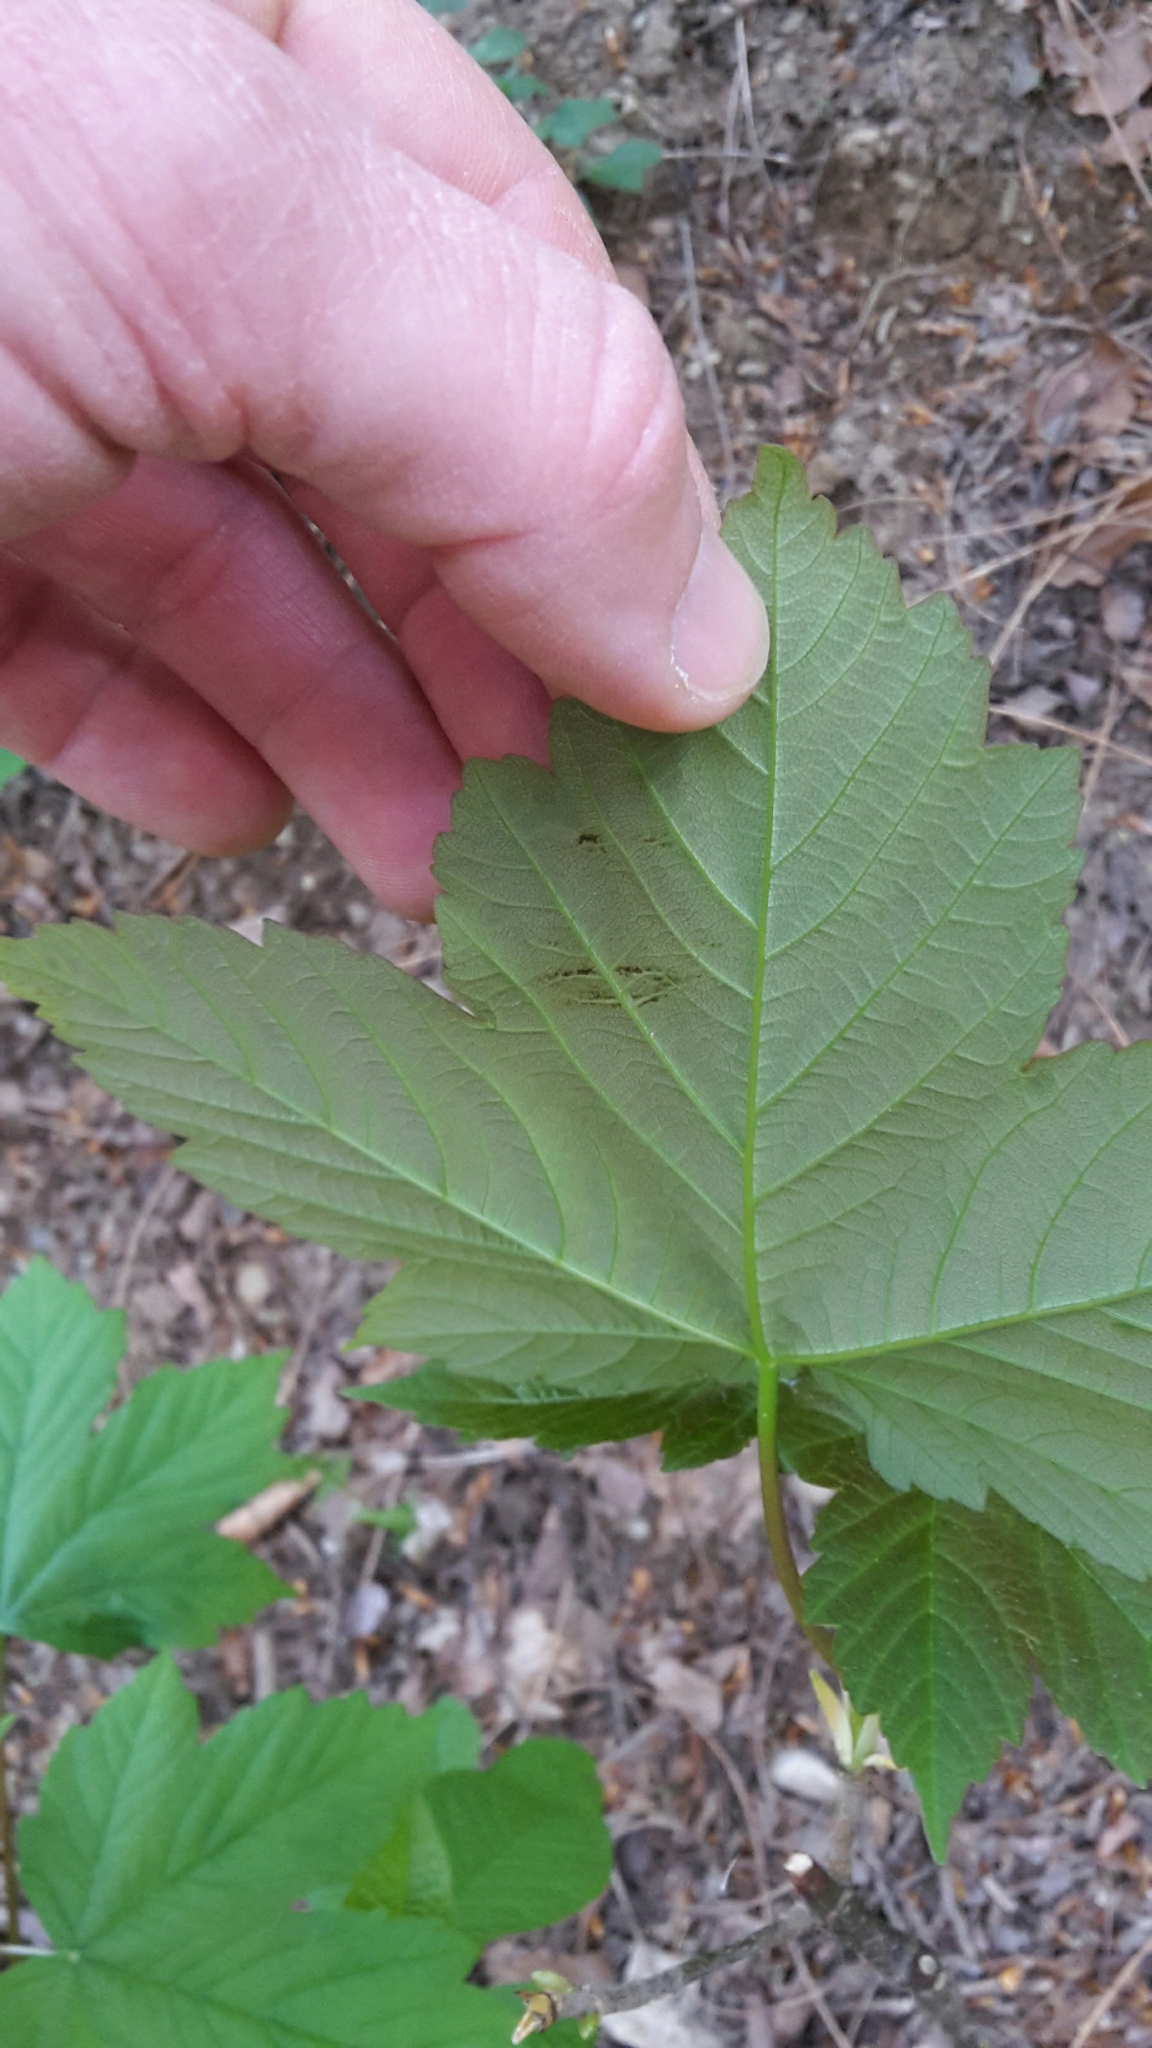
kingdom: Plantae
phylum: Tracheophyta
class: Magnoliopsida
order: Sapindales
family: Sapindaceae
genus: Acer
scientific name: Acer pseudoplatanus
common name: Sycamore
